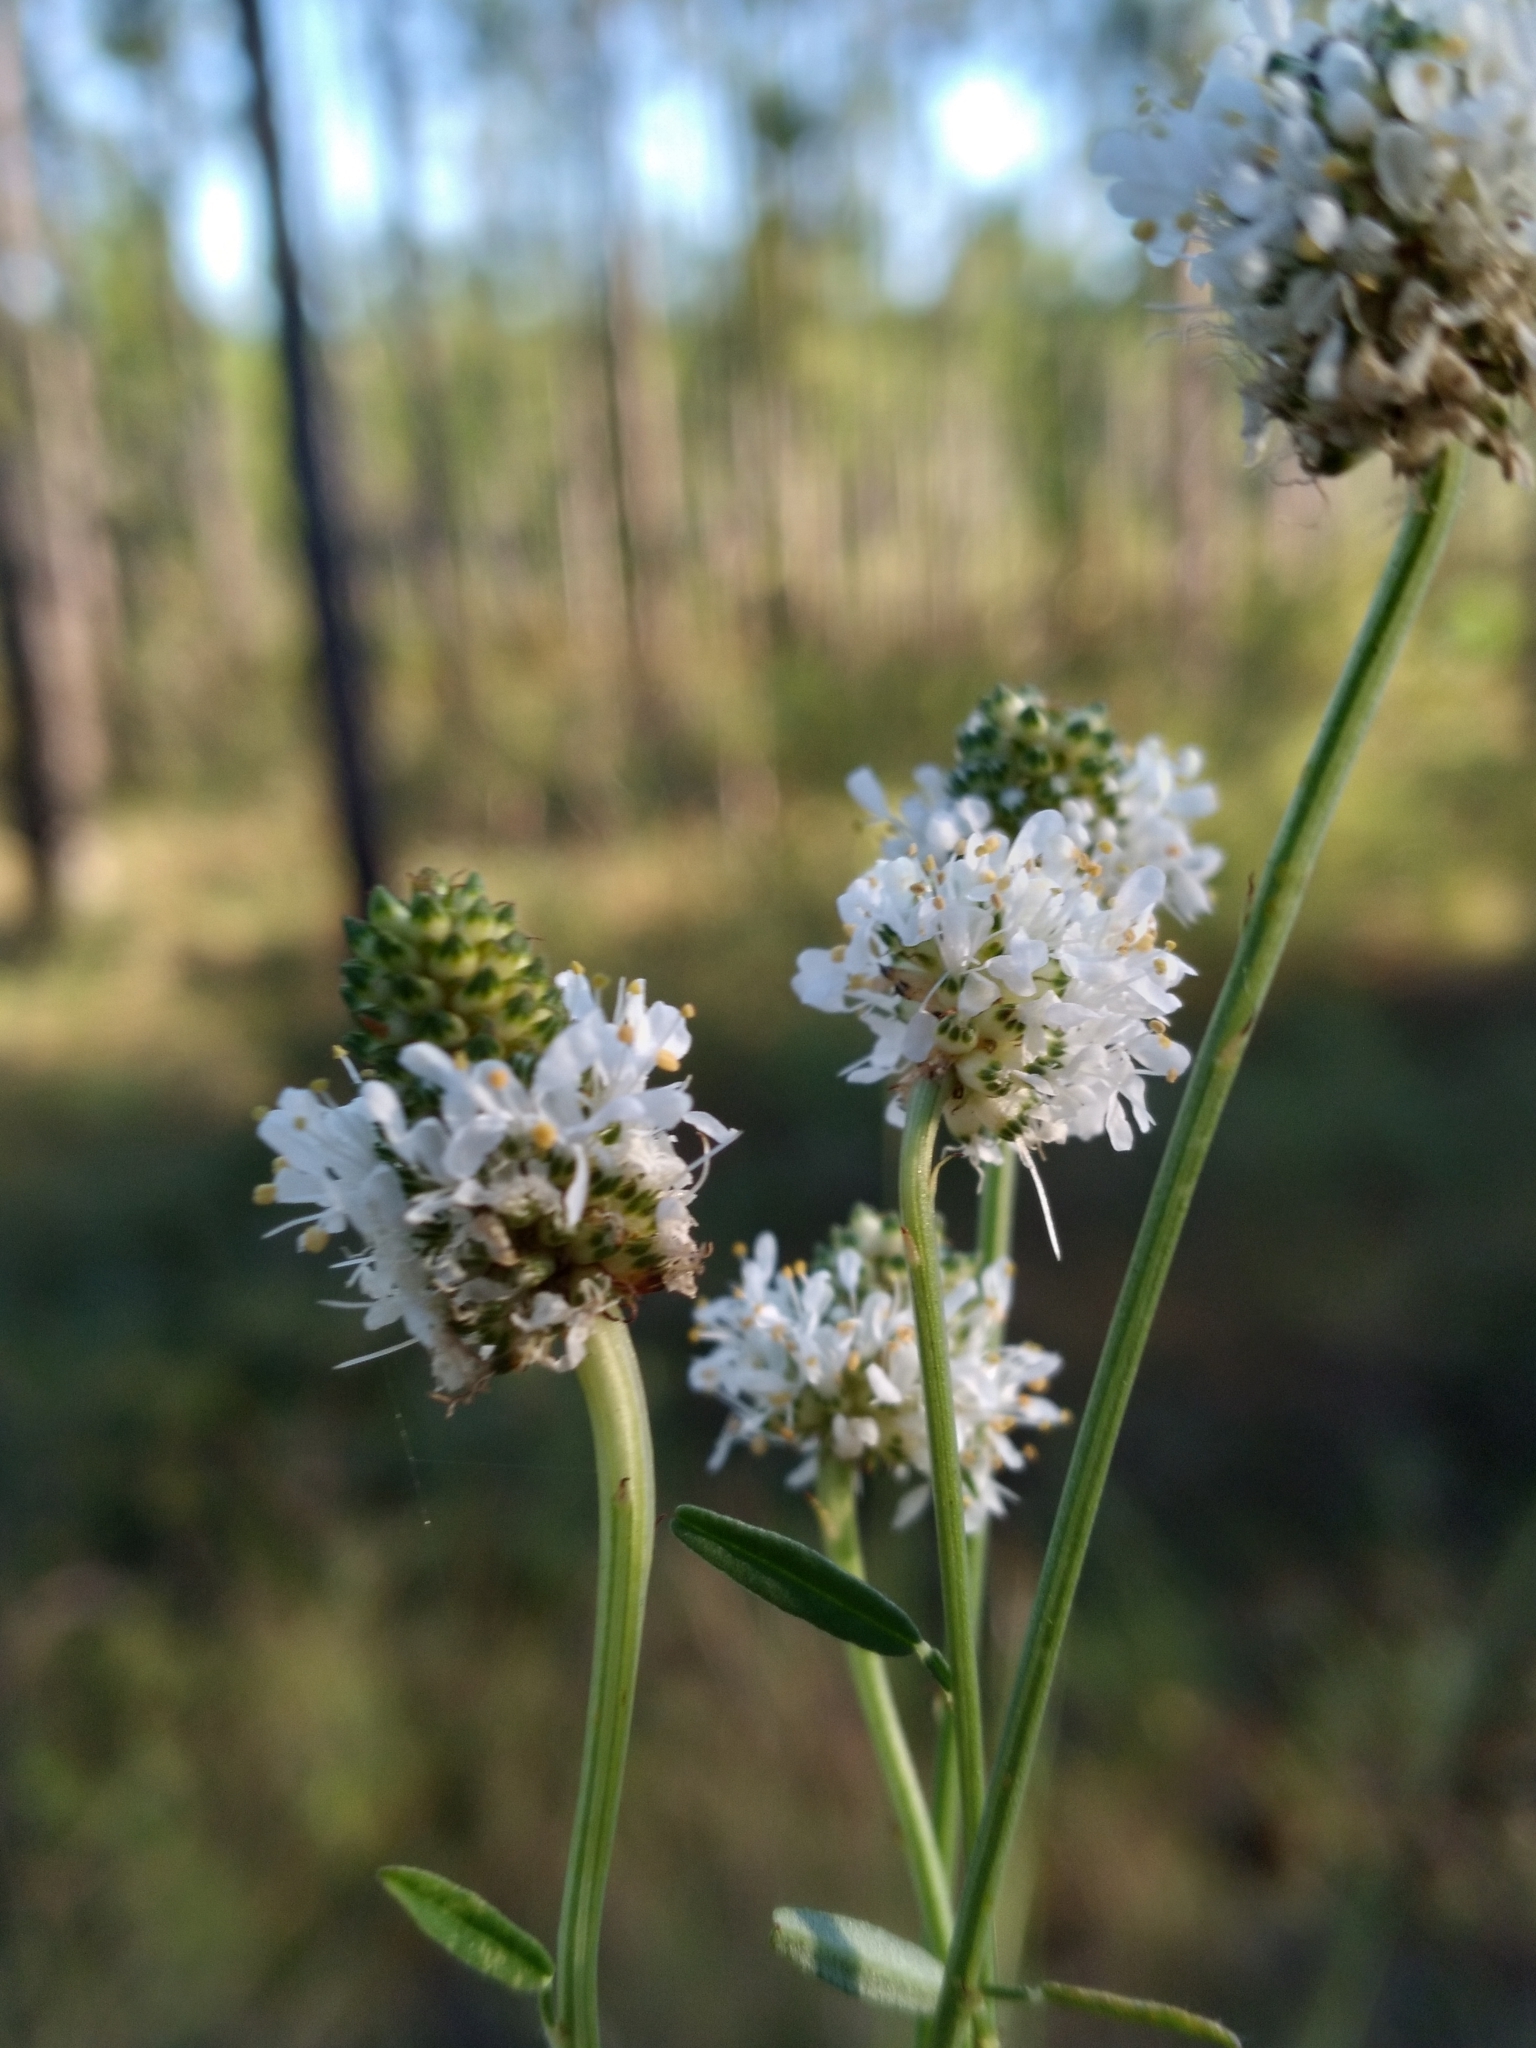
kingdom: Plantae
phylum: Tracheophyta
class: Magnoliopsida
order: Fabales
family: Fabaceae
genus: Dalea
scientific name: Dalea mountjoyae
